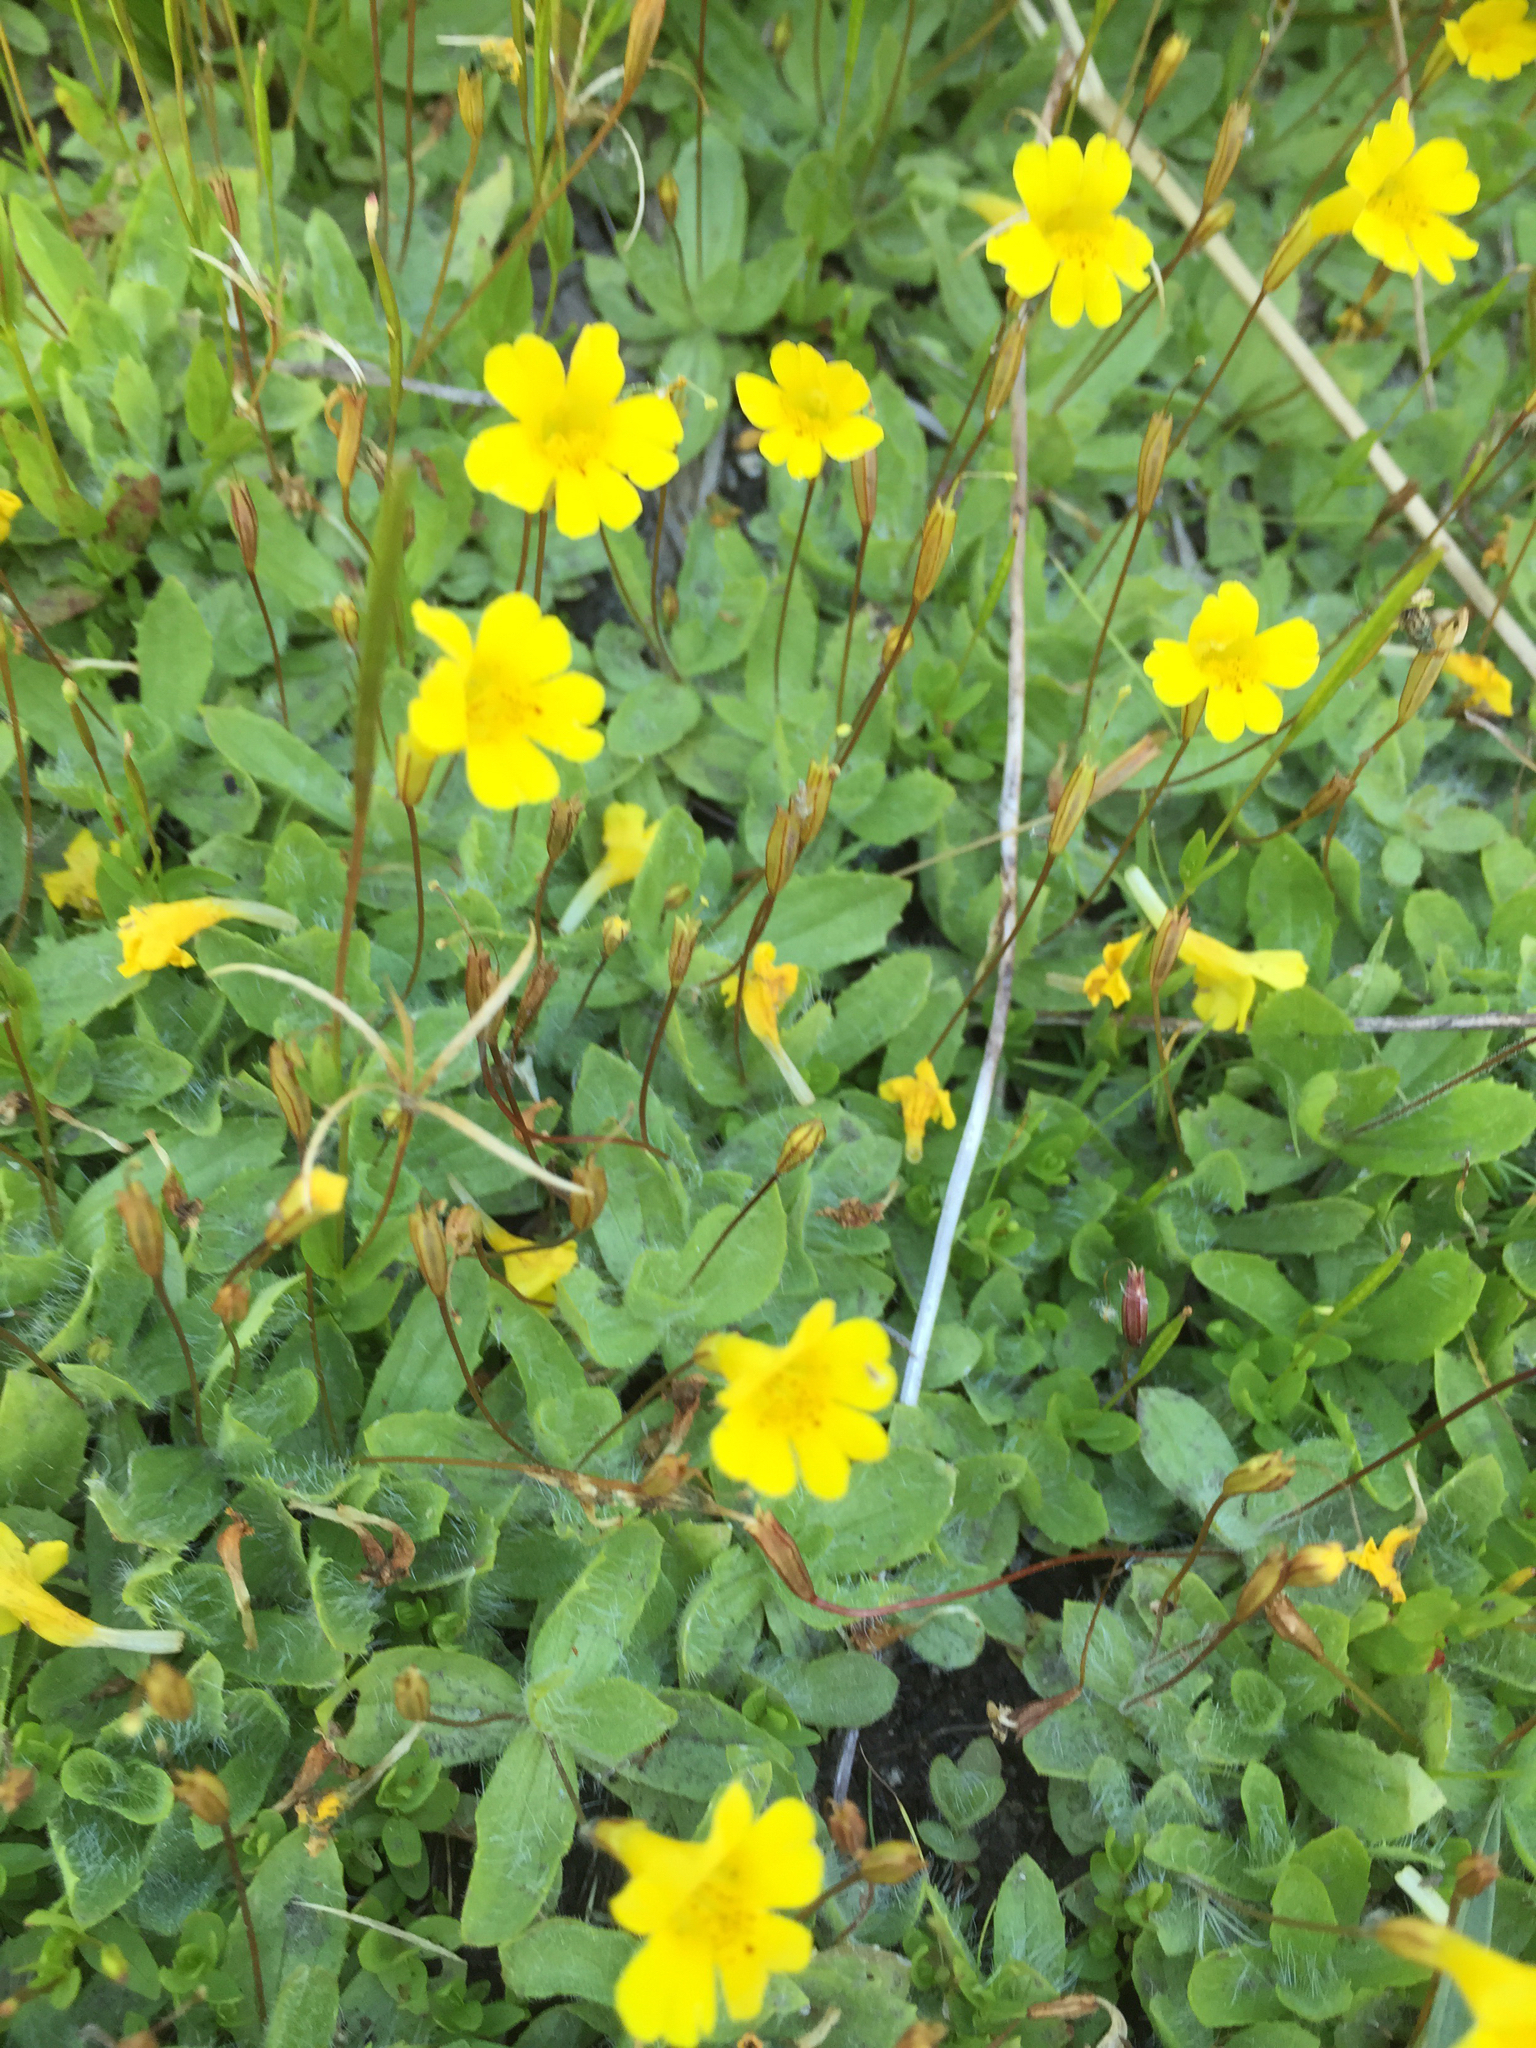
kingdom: Plantae
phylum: Tracheophyta
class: Magnoliopsida
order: Lamiales
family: Phrymaceae
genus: Erythranthe
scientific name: Erythranthe primuloides
